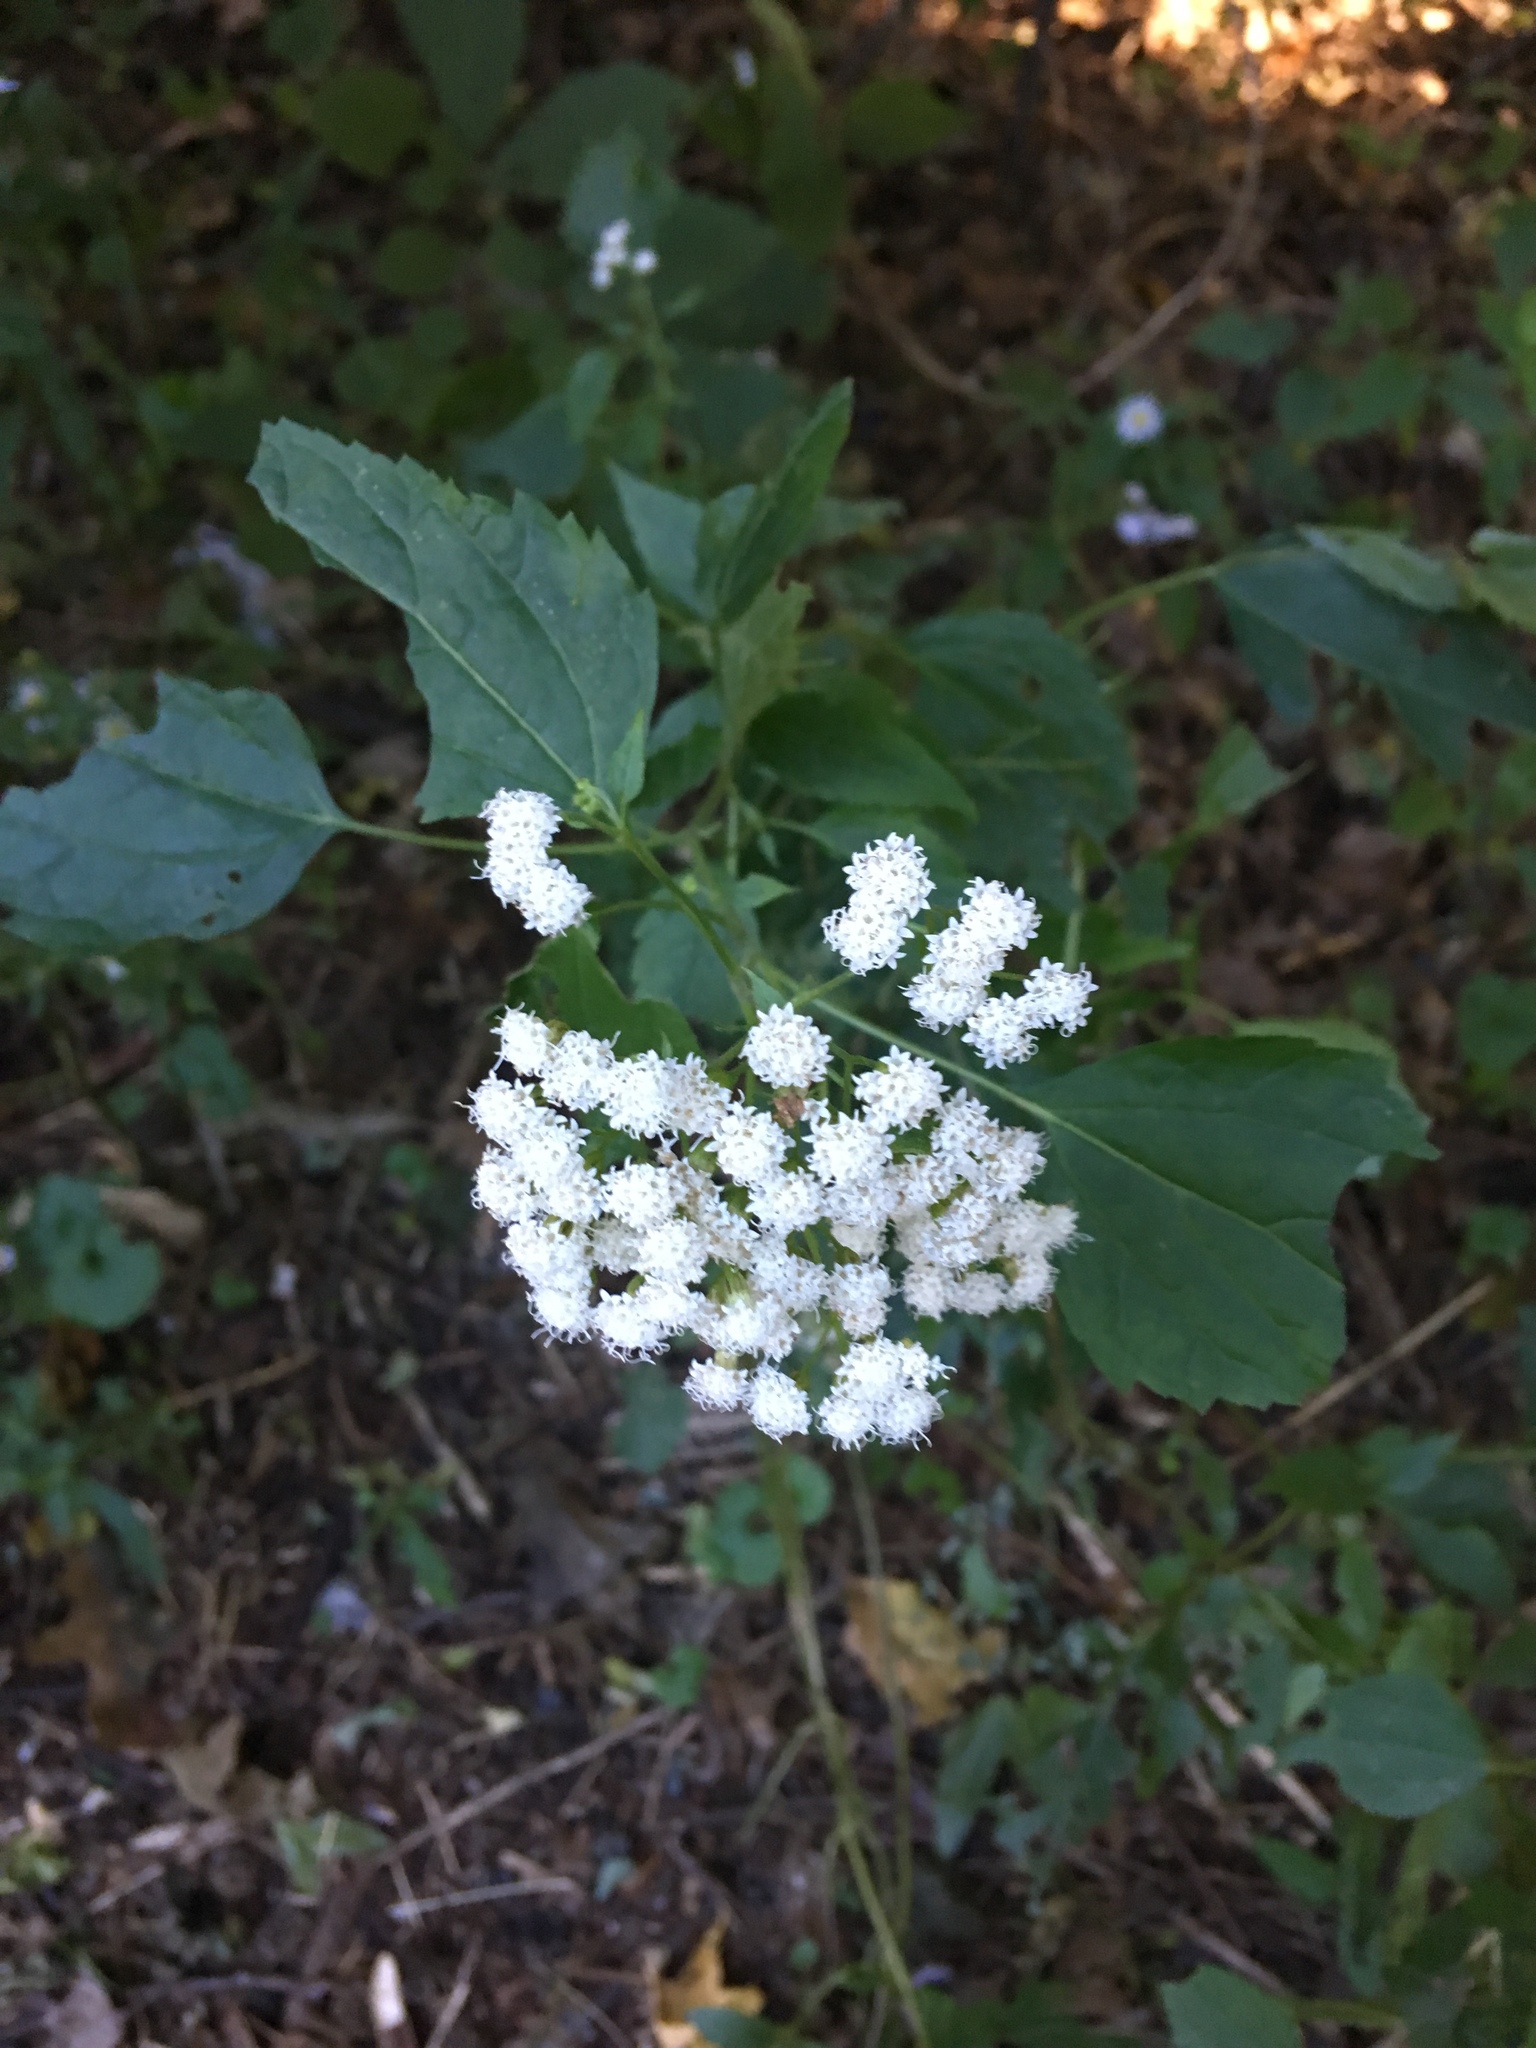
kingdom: Plantae
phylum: Tracheophyta
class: Magnoliopsida
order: Asterales
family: Asteraceae
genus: Ageratina
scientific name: Ageratina altissima
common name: White snakeroot
